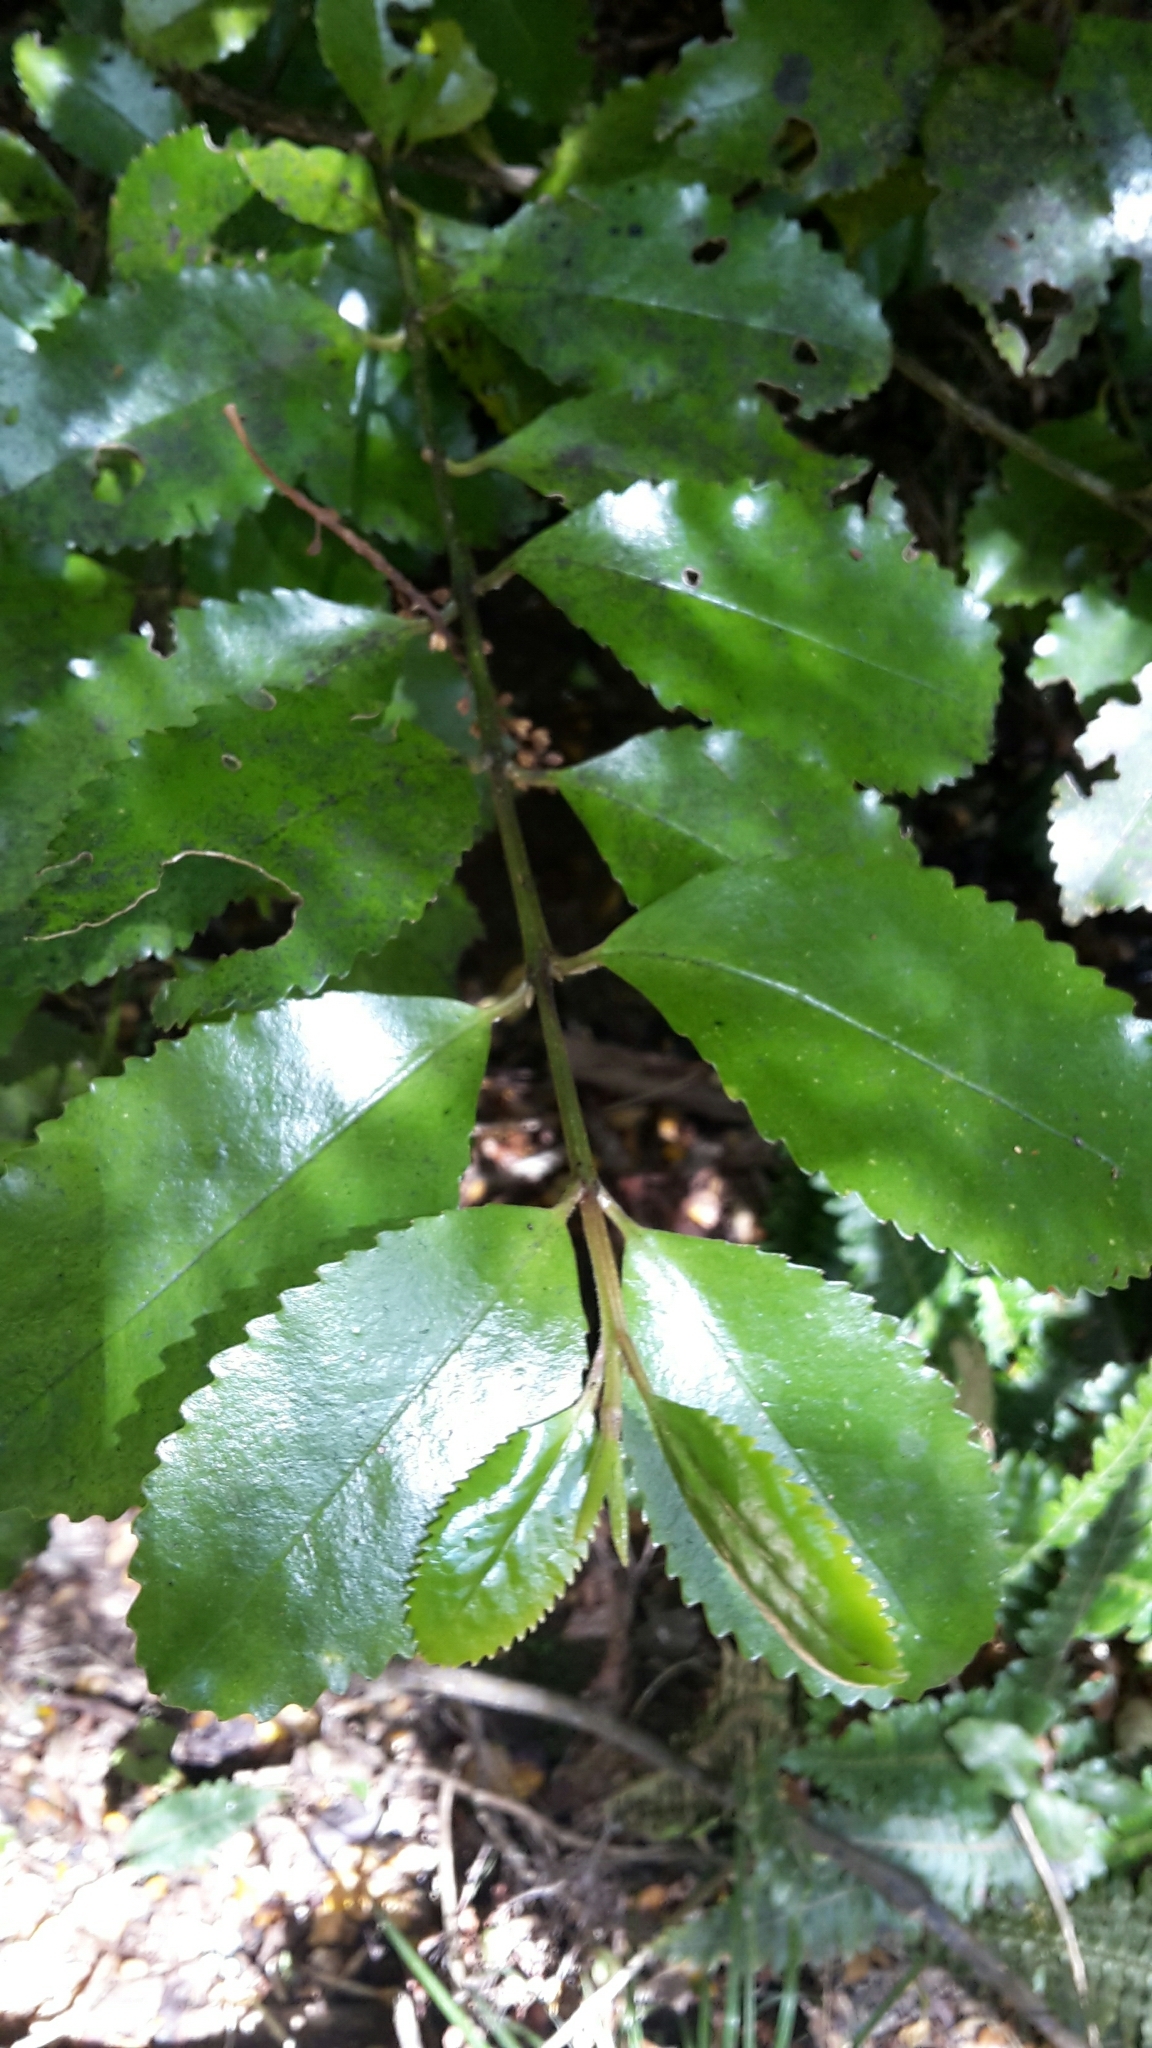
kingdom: Plantae
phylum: Tracheophyta
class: Magnoliopsida
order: Laurales
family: Atherospermataceae
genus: Laurelia
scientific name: Laurelia novae-zelandiae
